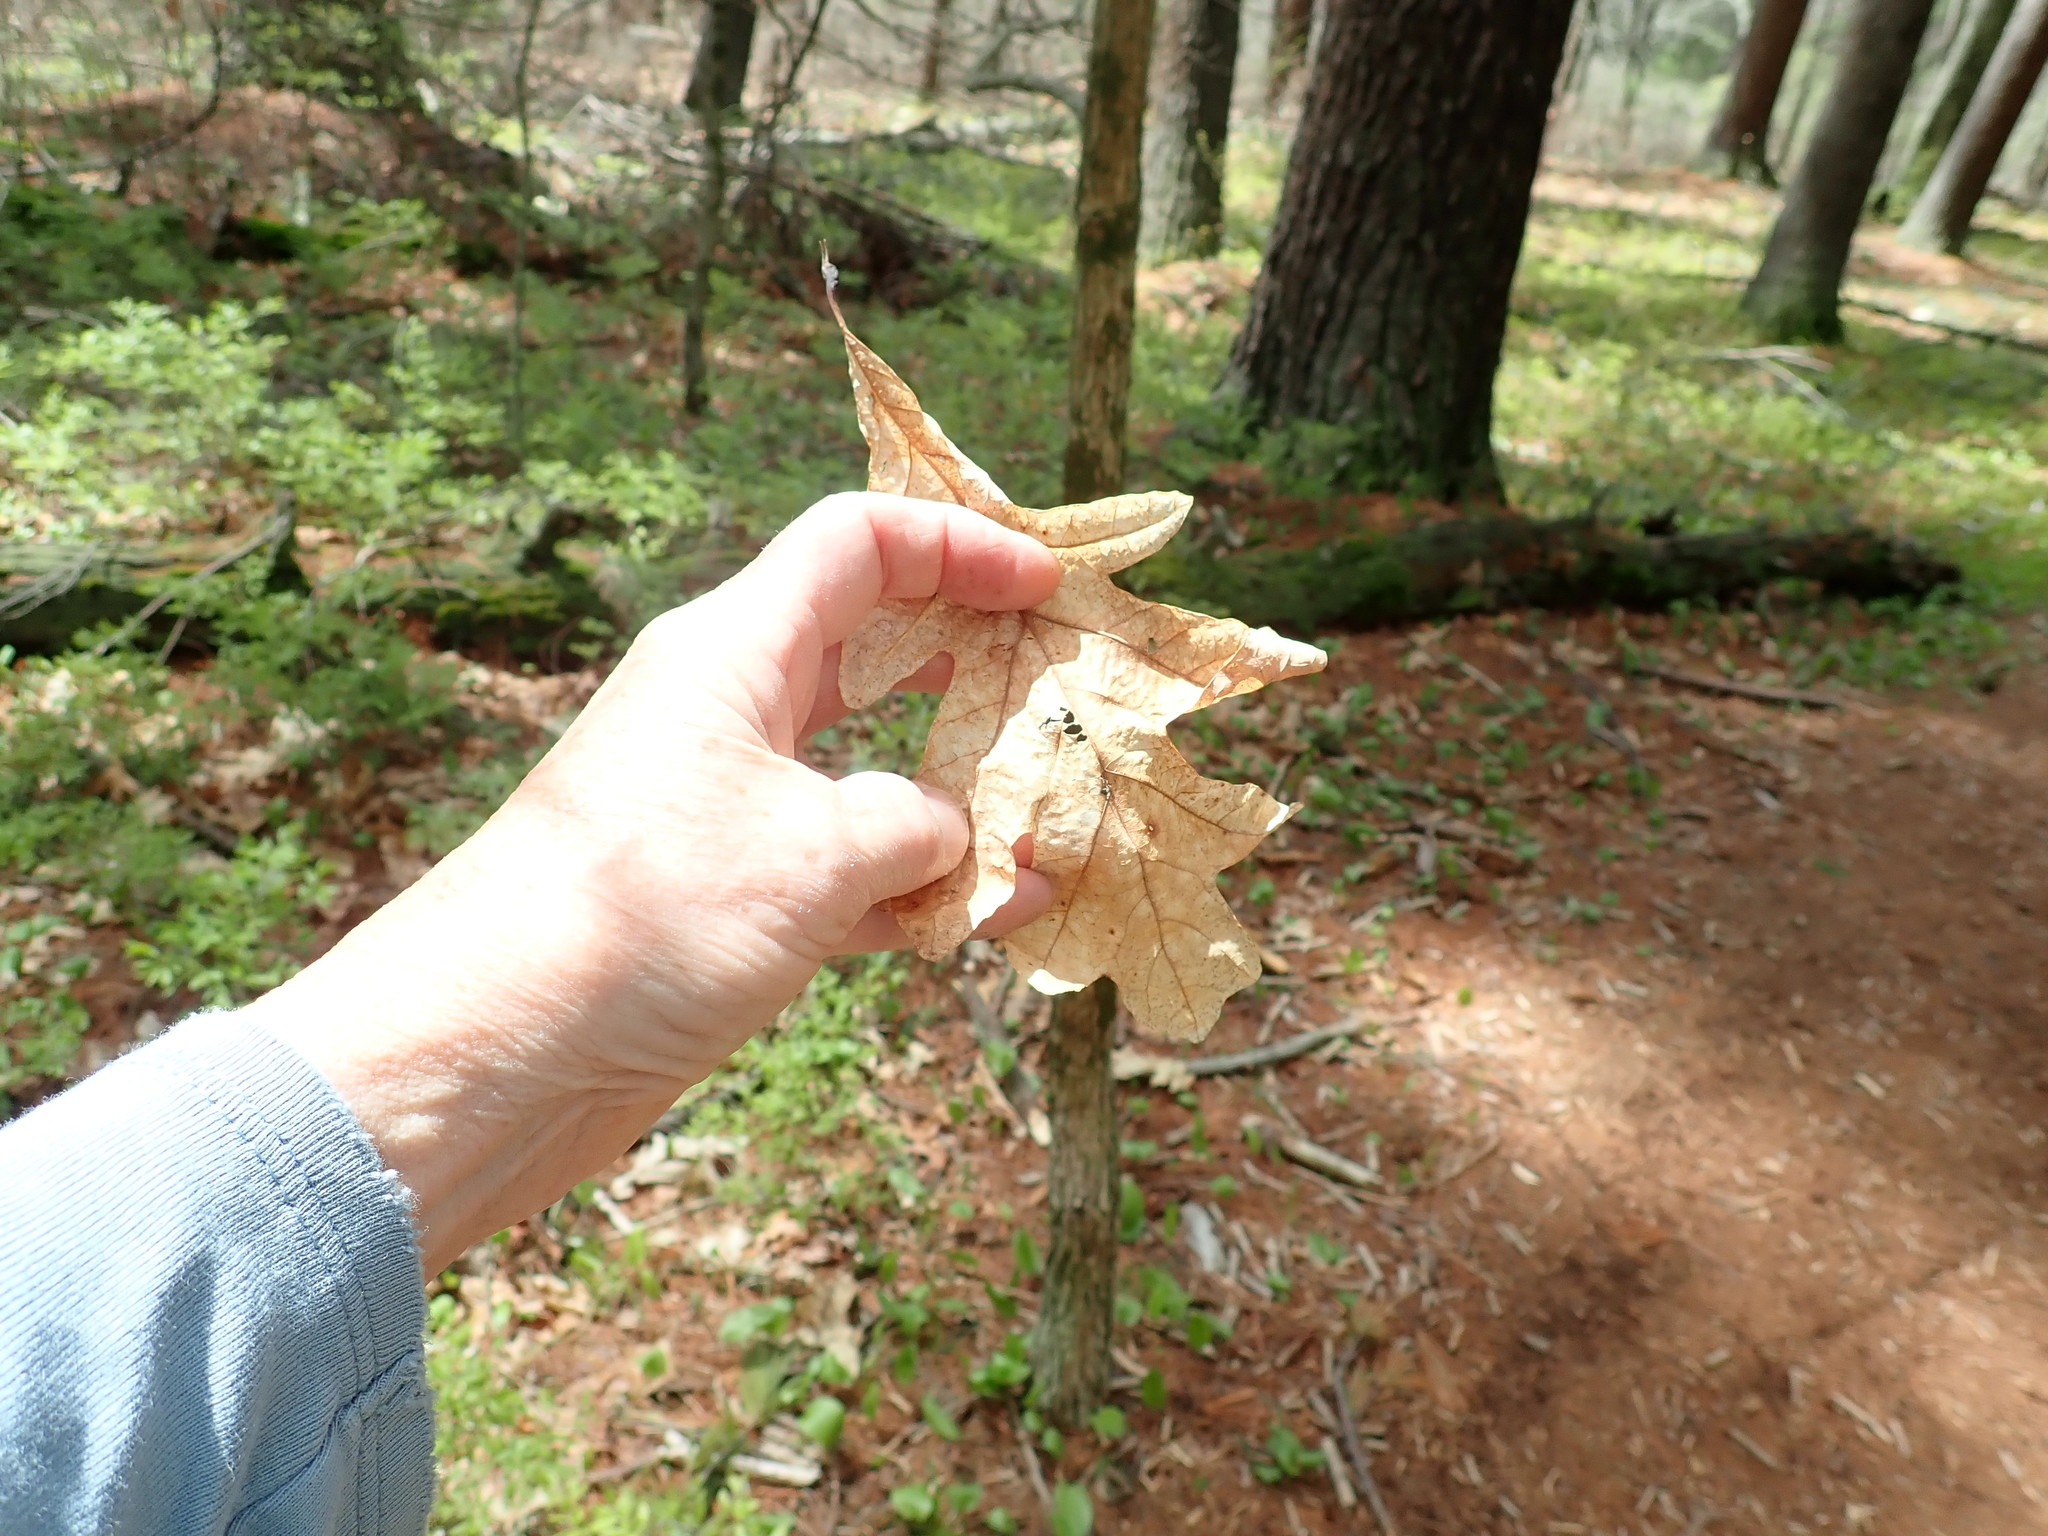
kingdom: Plantae
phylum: Tracheophyta
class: Magnoliopsida
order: Fagales
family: Fagaceae
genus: Quercus
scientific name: Quercus alba
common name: White oak
